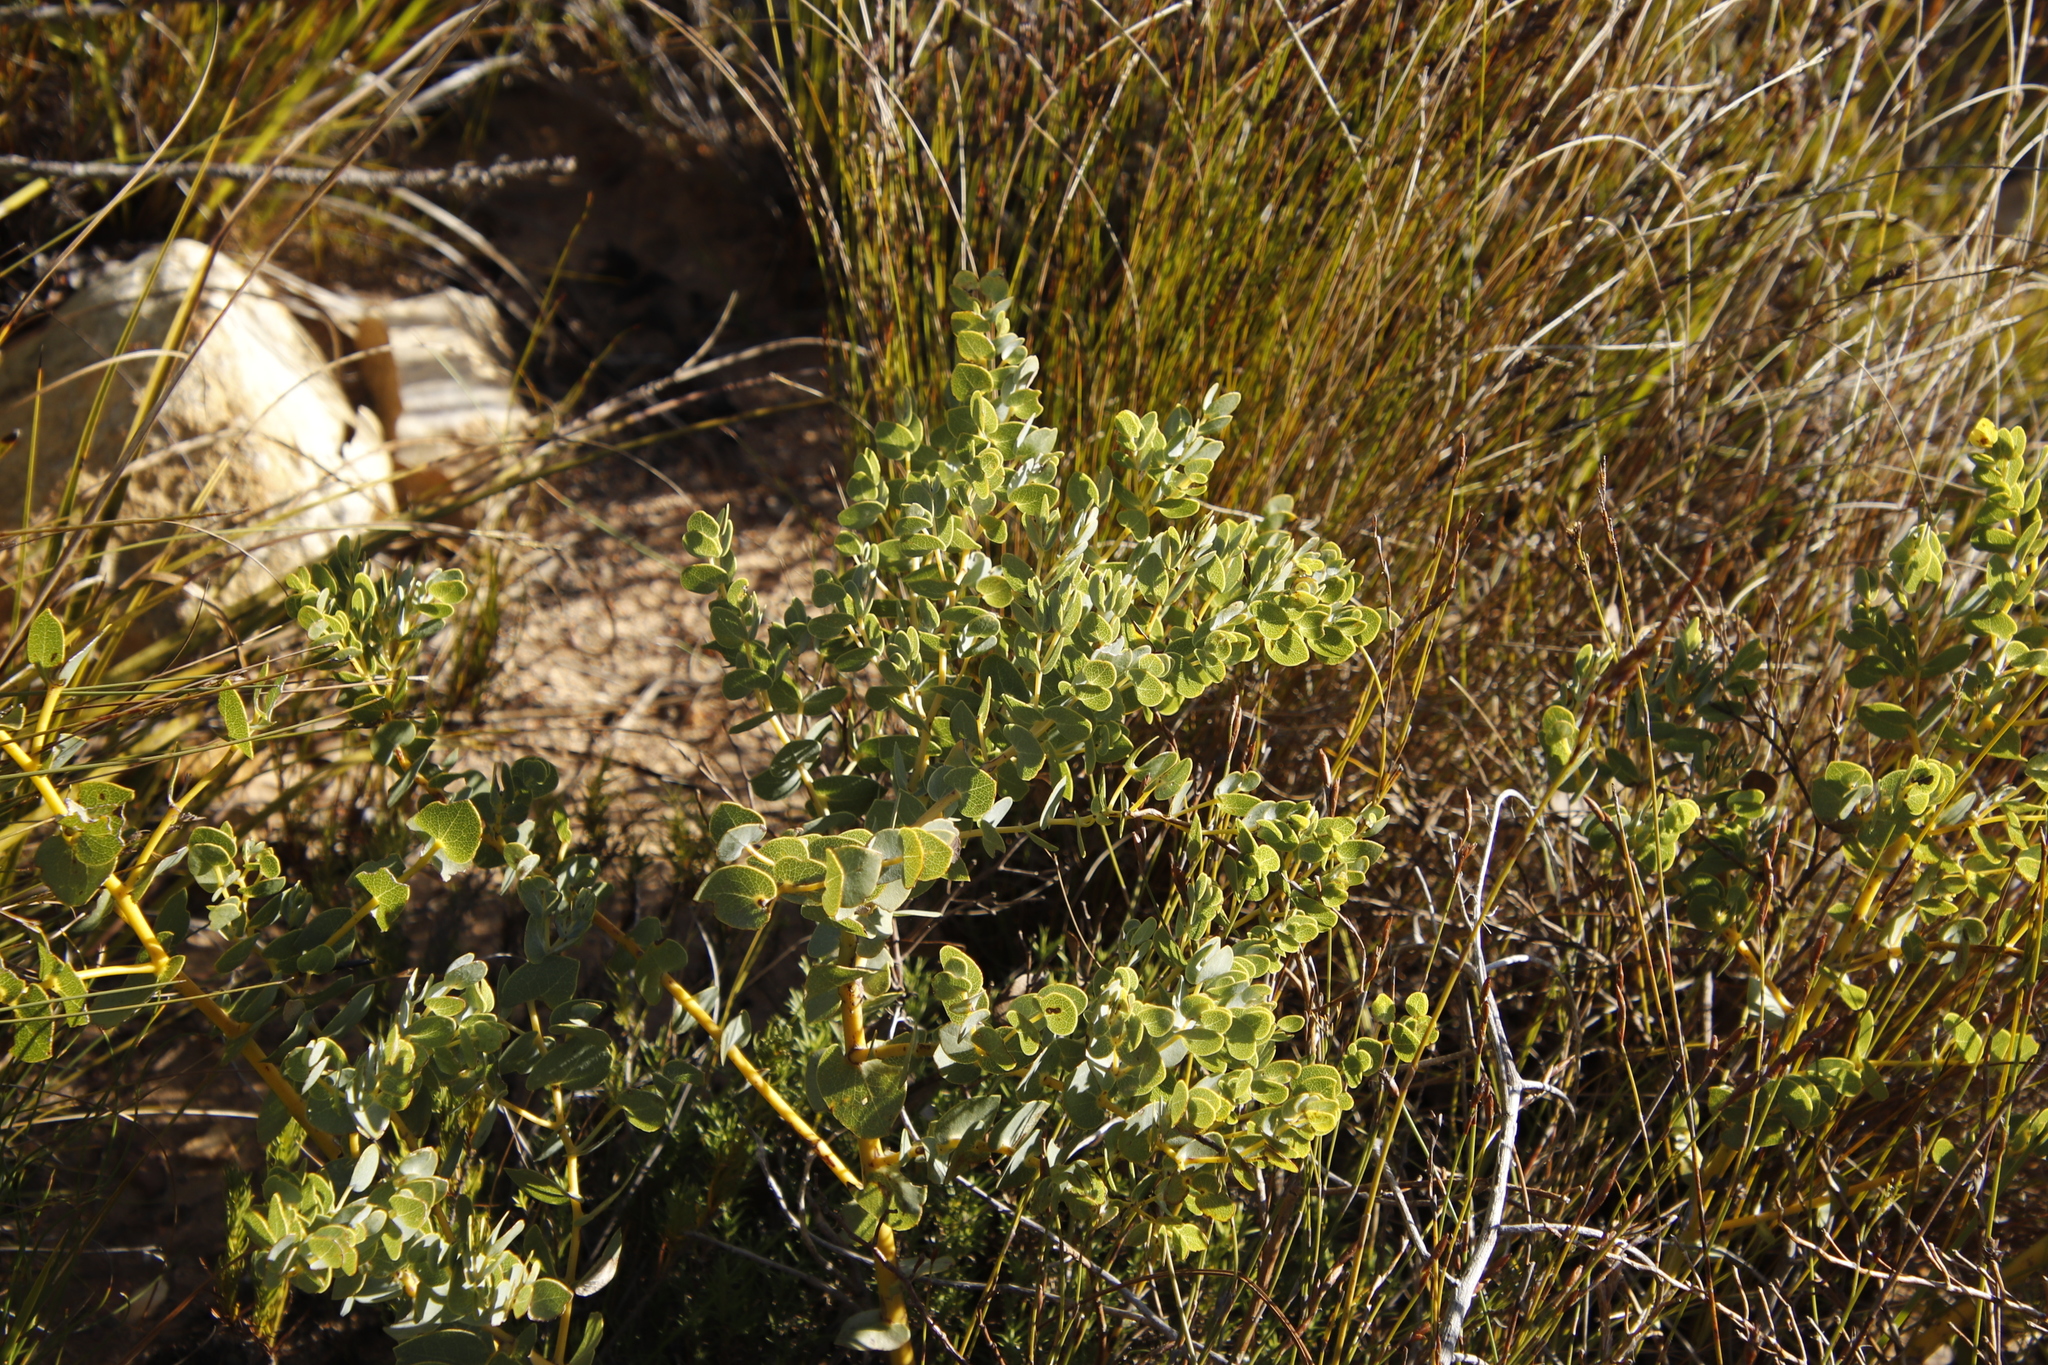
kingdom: Plantae
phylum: Tracheophyta
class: Magnoliopsida
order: Fabales
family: Fabaceae
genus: Rafnia
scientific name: Rafnia acuminata
